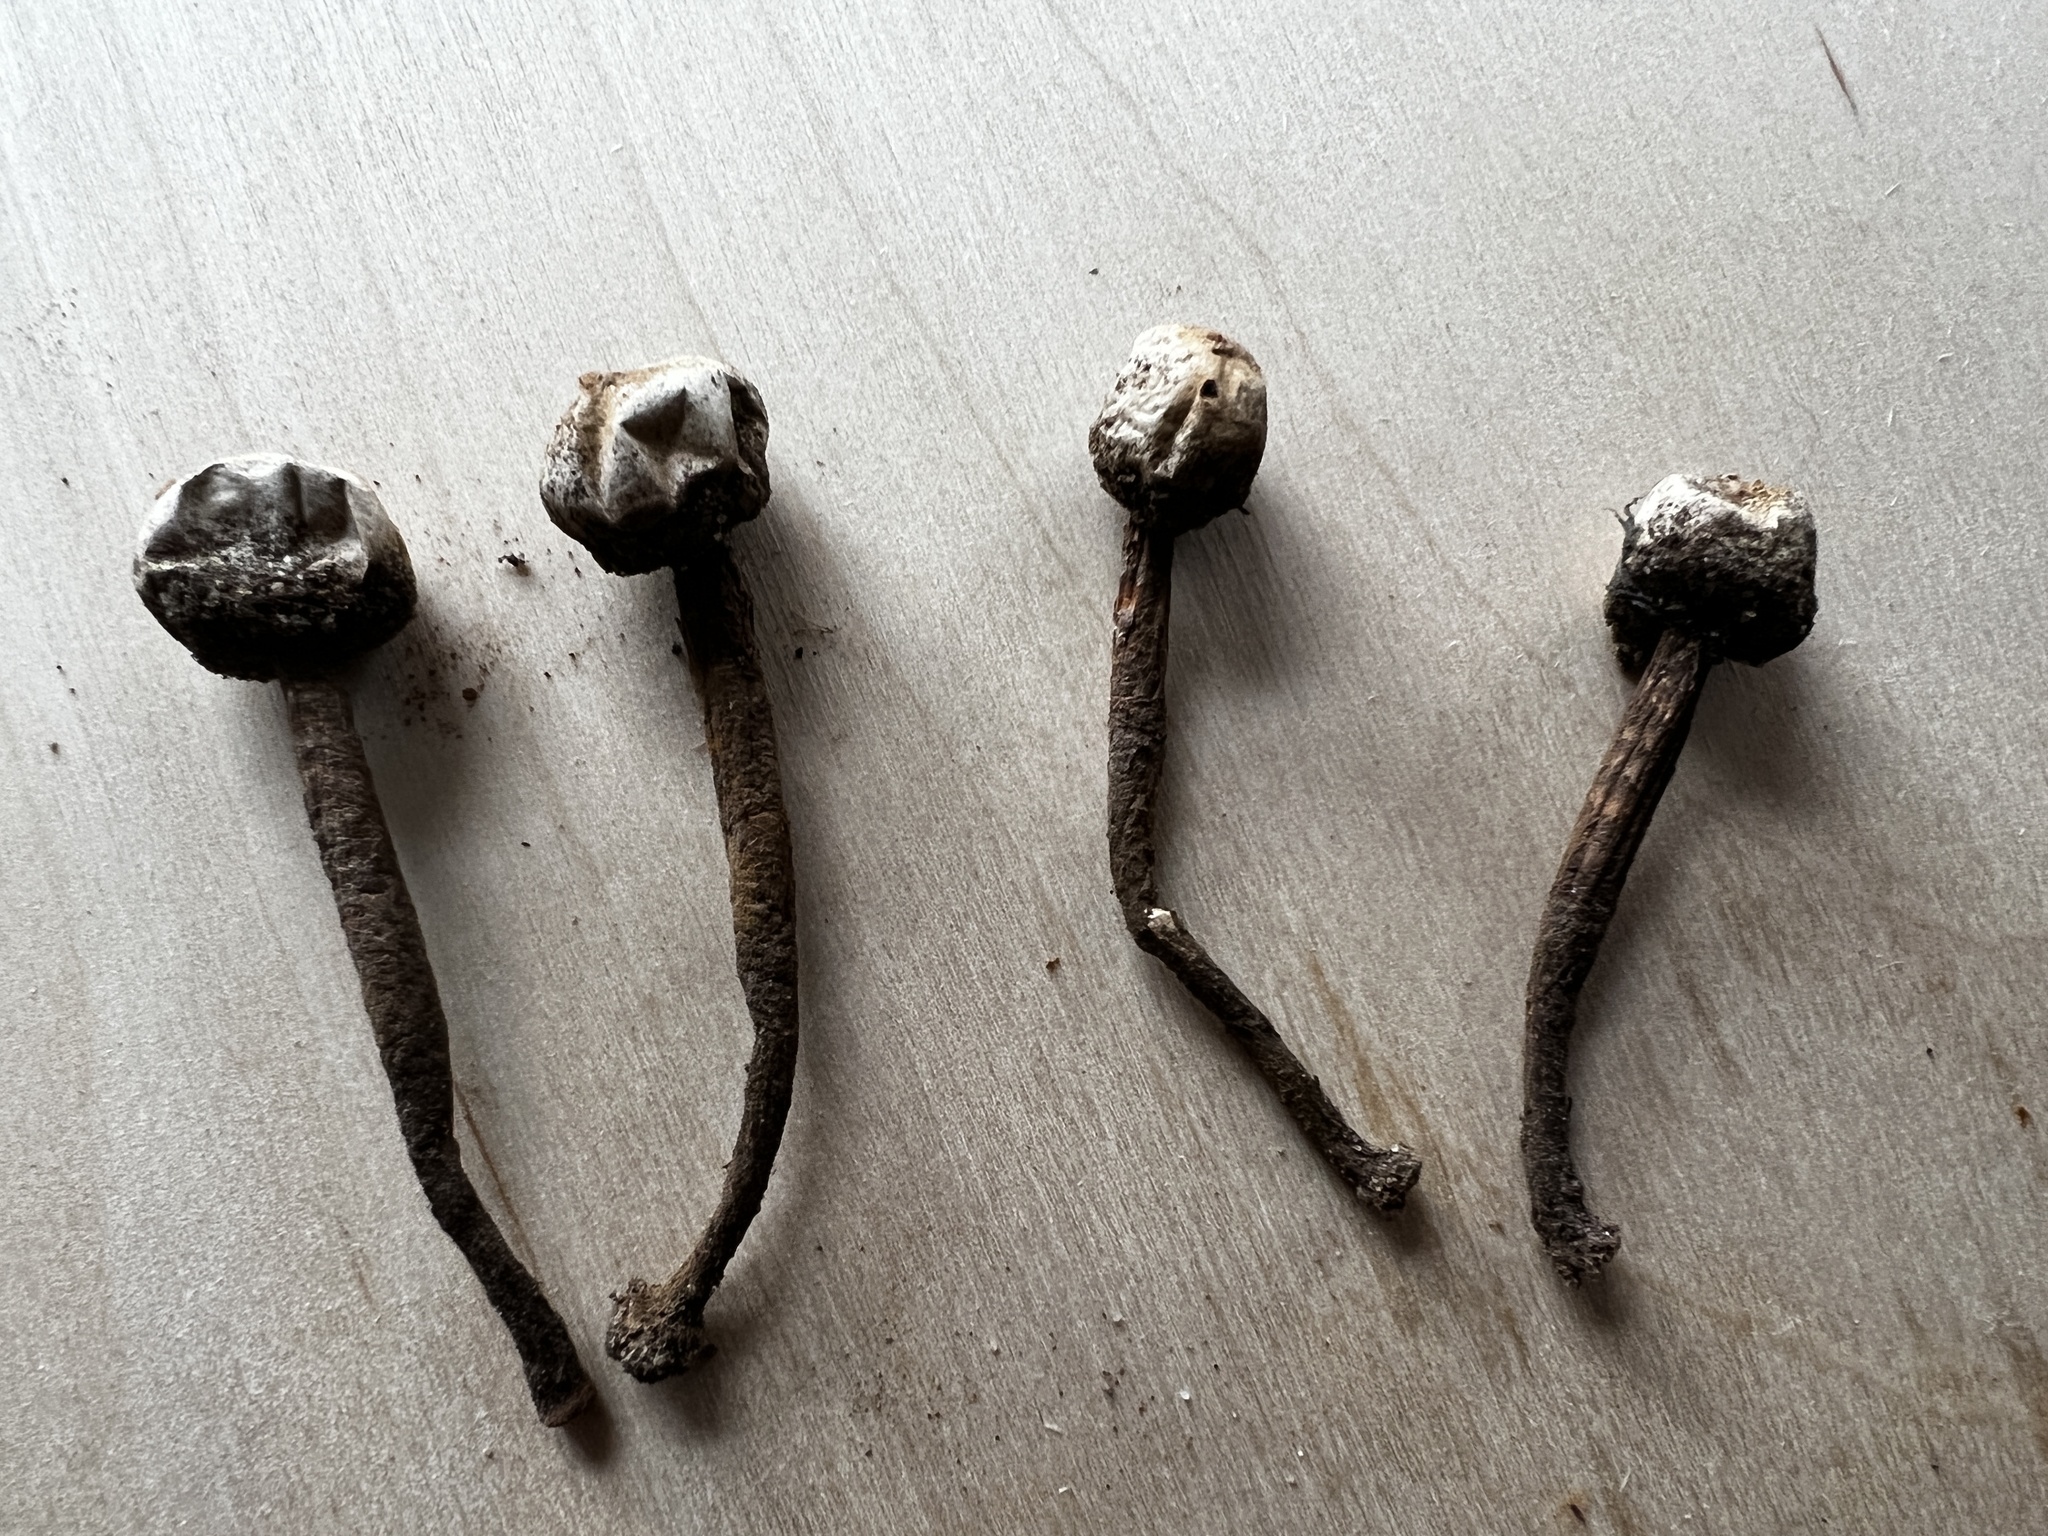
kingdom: Fungi
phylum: Basidiomycota
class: Agaricomycetes
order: Agaricales
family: Agaricaceae
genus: Tulostoma
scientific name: Tulostoma fimbriatum
